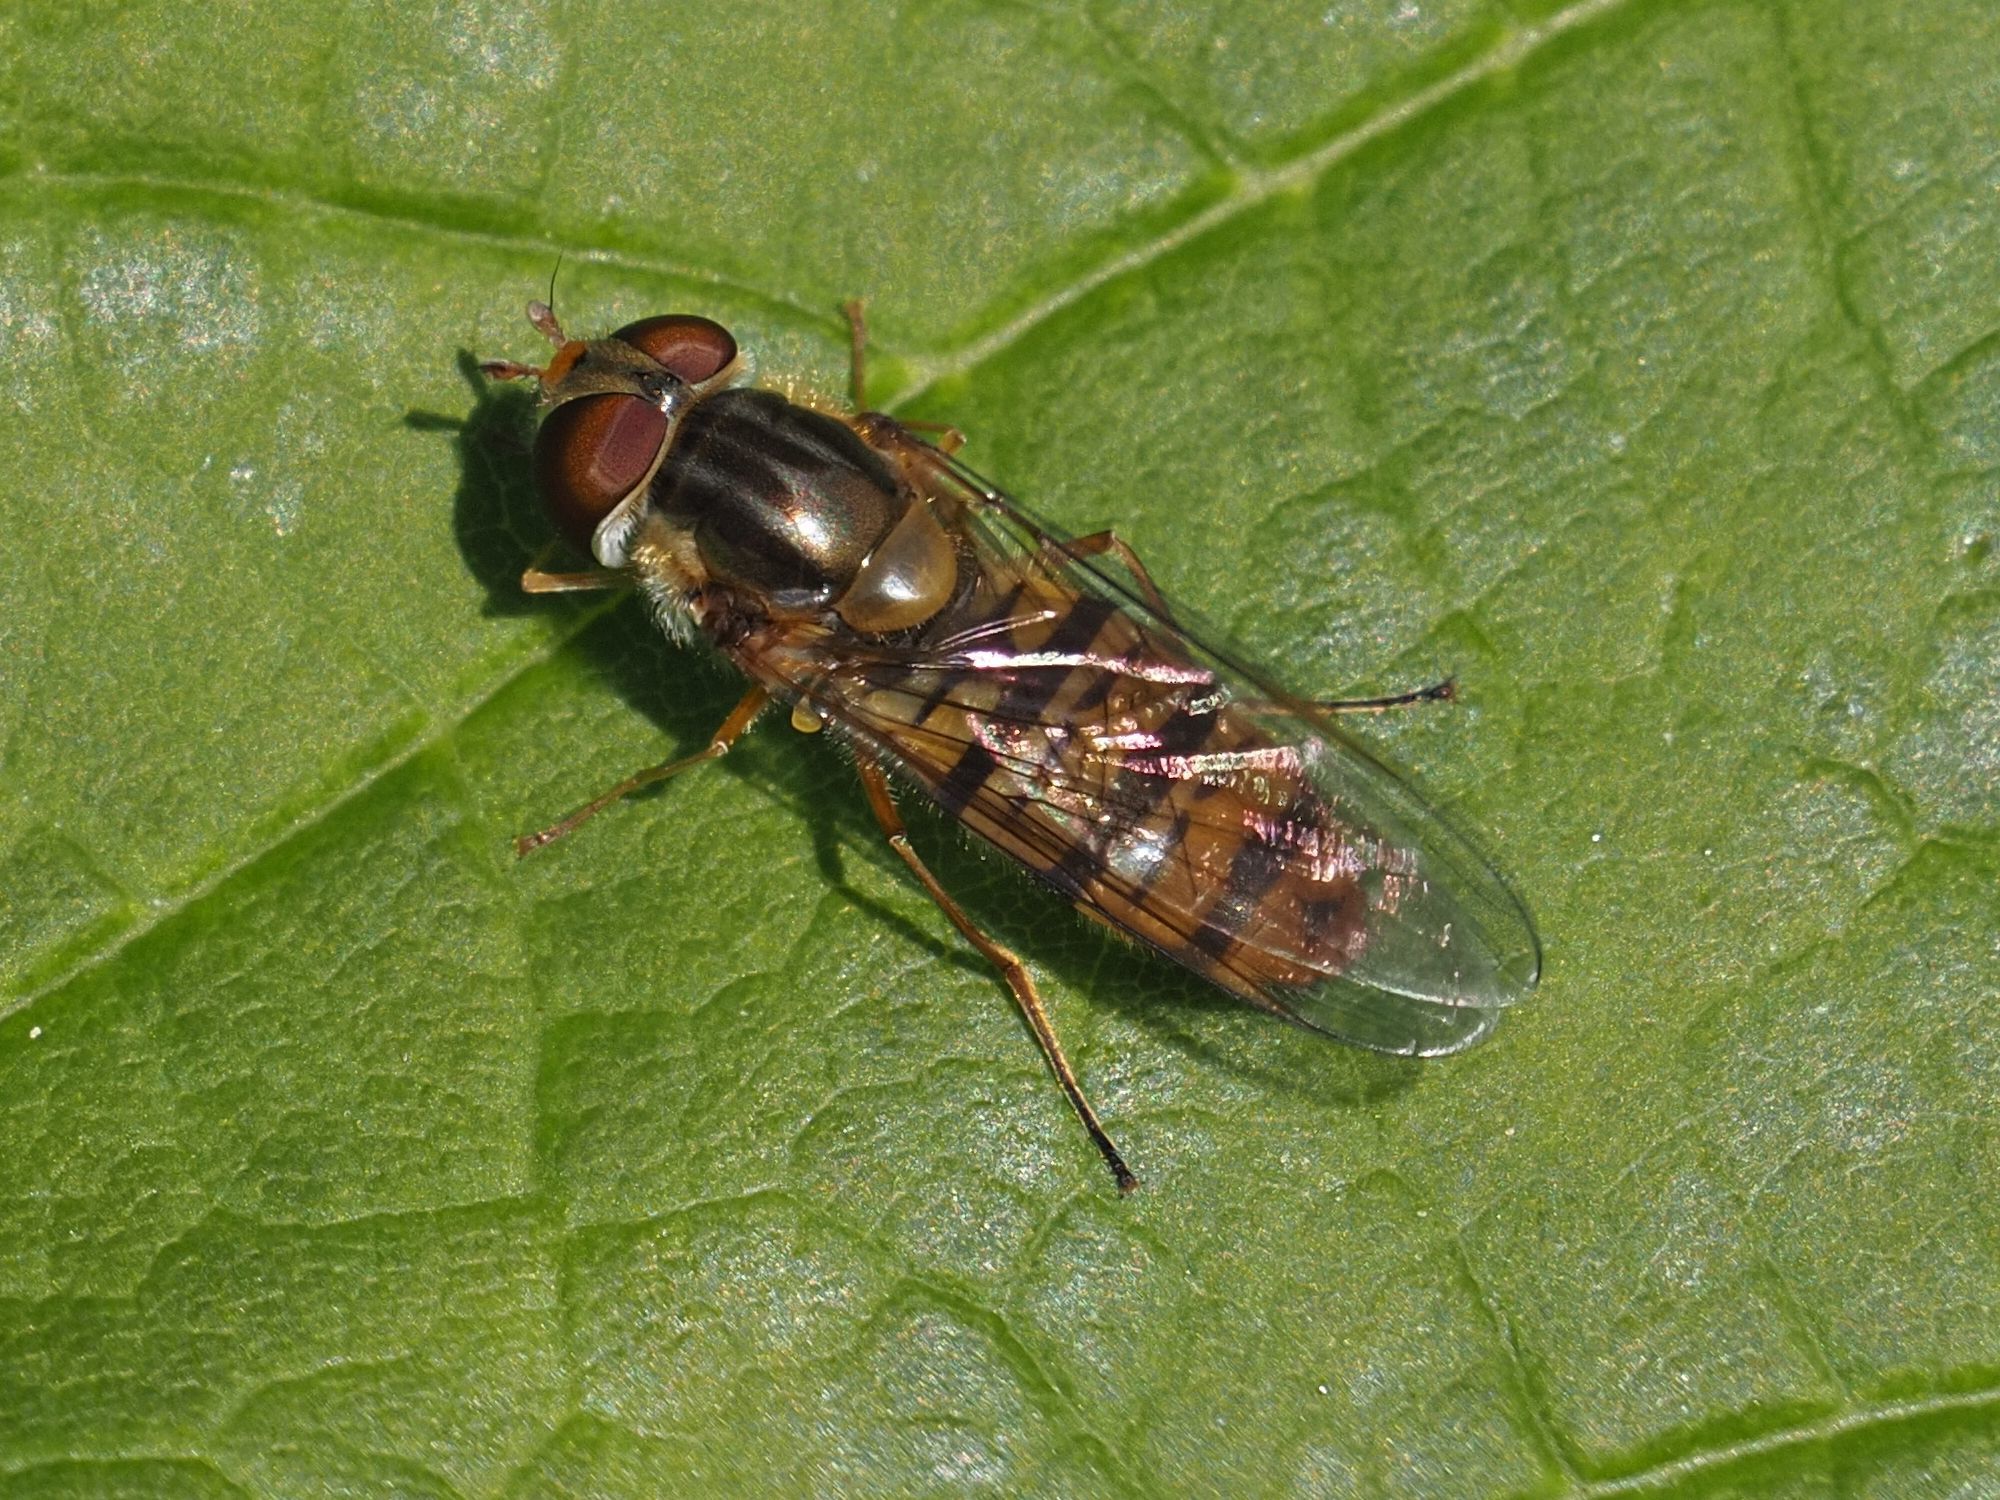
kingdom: Animalia
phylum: Arthropoda
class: Insecta
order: Diptera
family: Syrphidae
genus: Episyrphus
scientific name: Episyrphus balteatus
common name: Marmalade hoverfly
